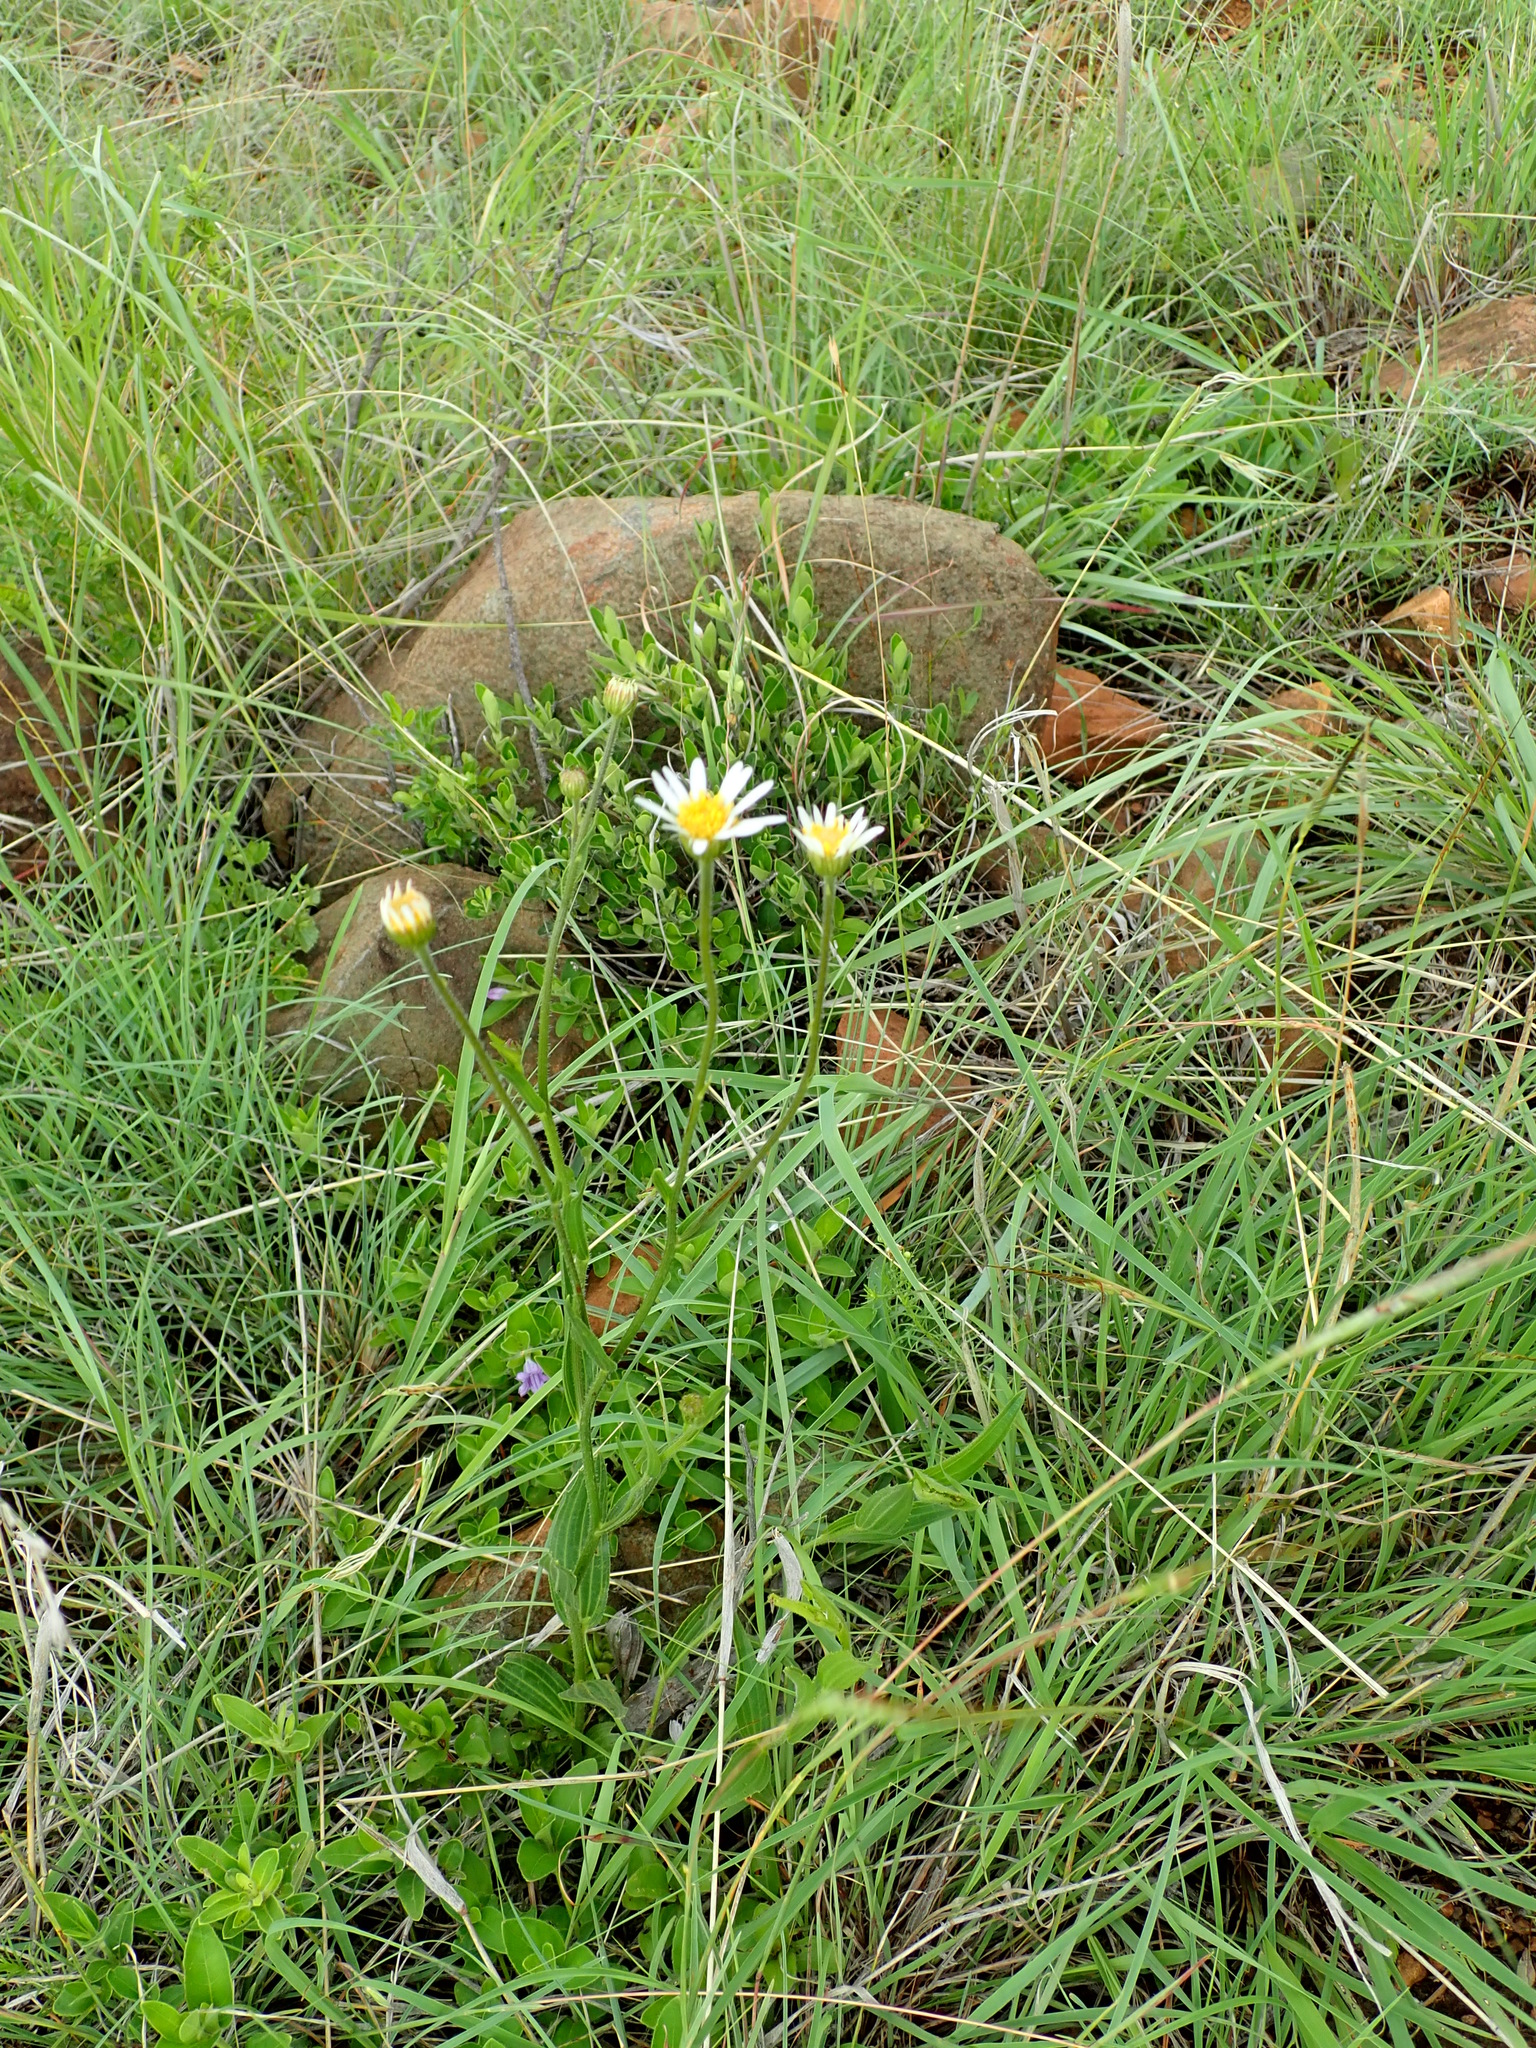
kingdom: Plantae
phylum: Tracheophyta
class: Magnoliopsida
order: Asterales
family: Asteraceae
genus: Afroaster
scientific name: Afroaster pleiocephalus
